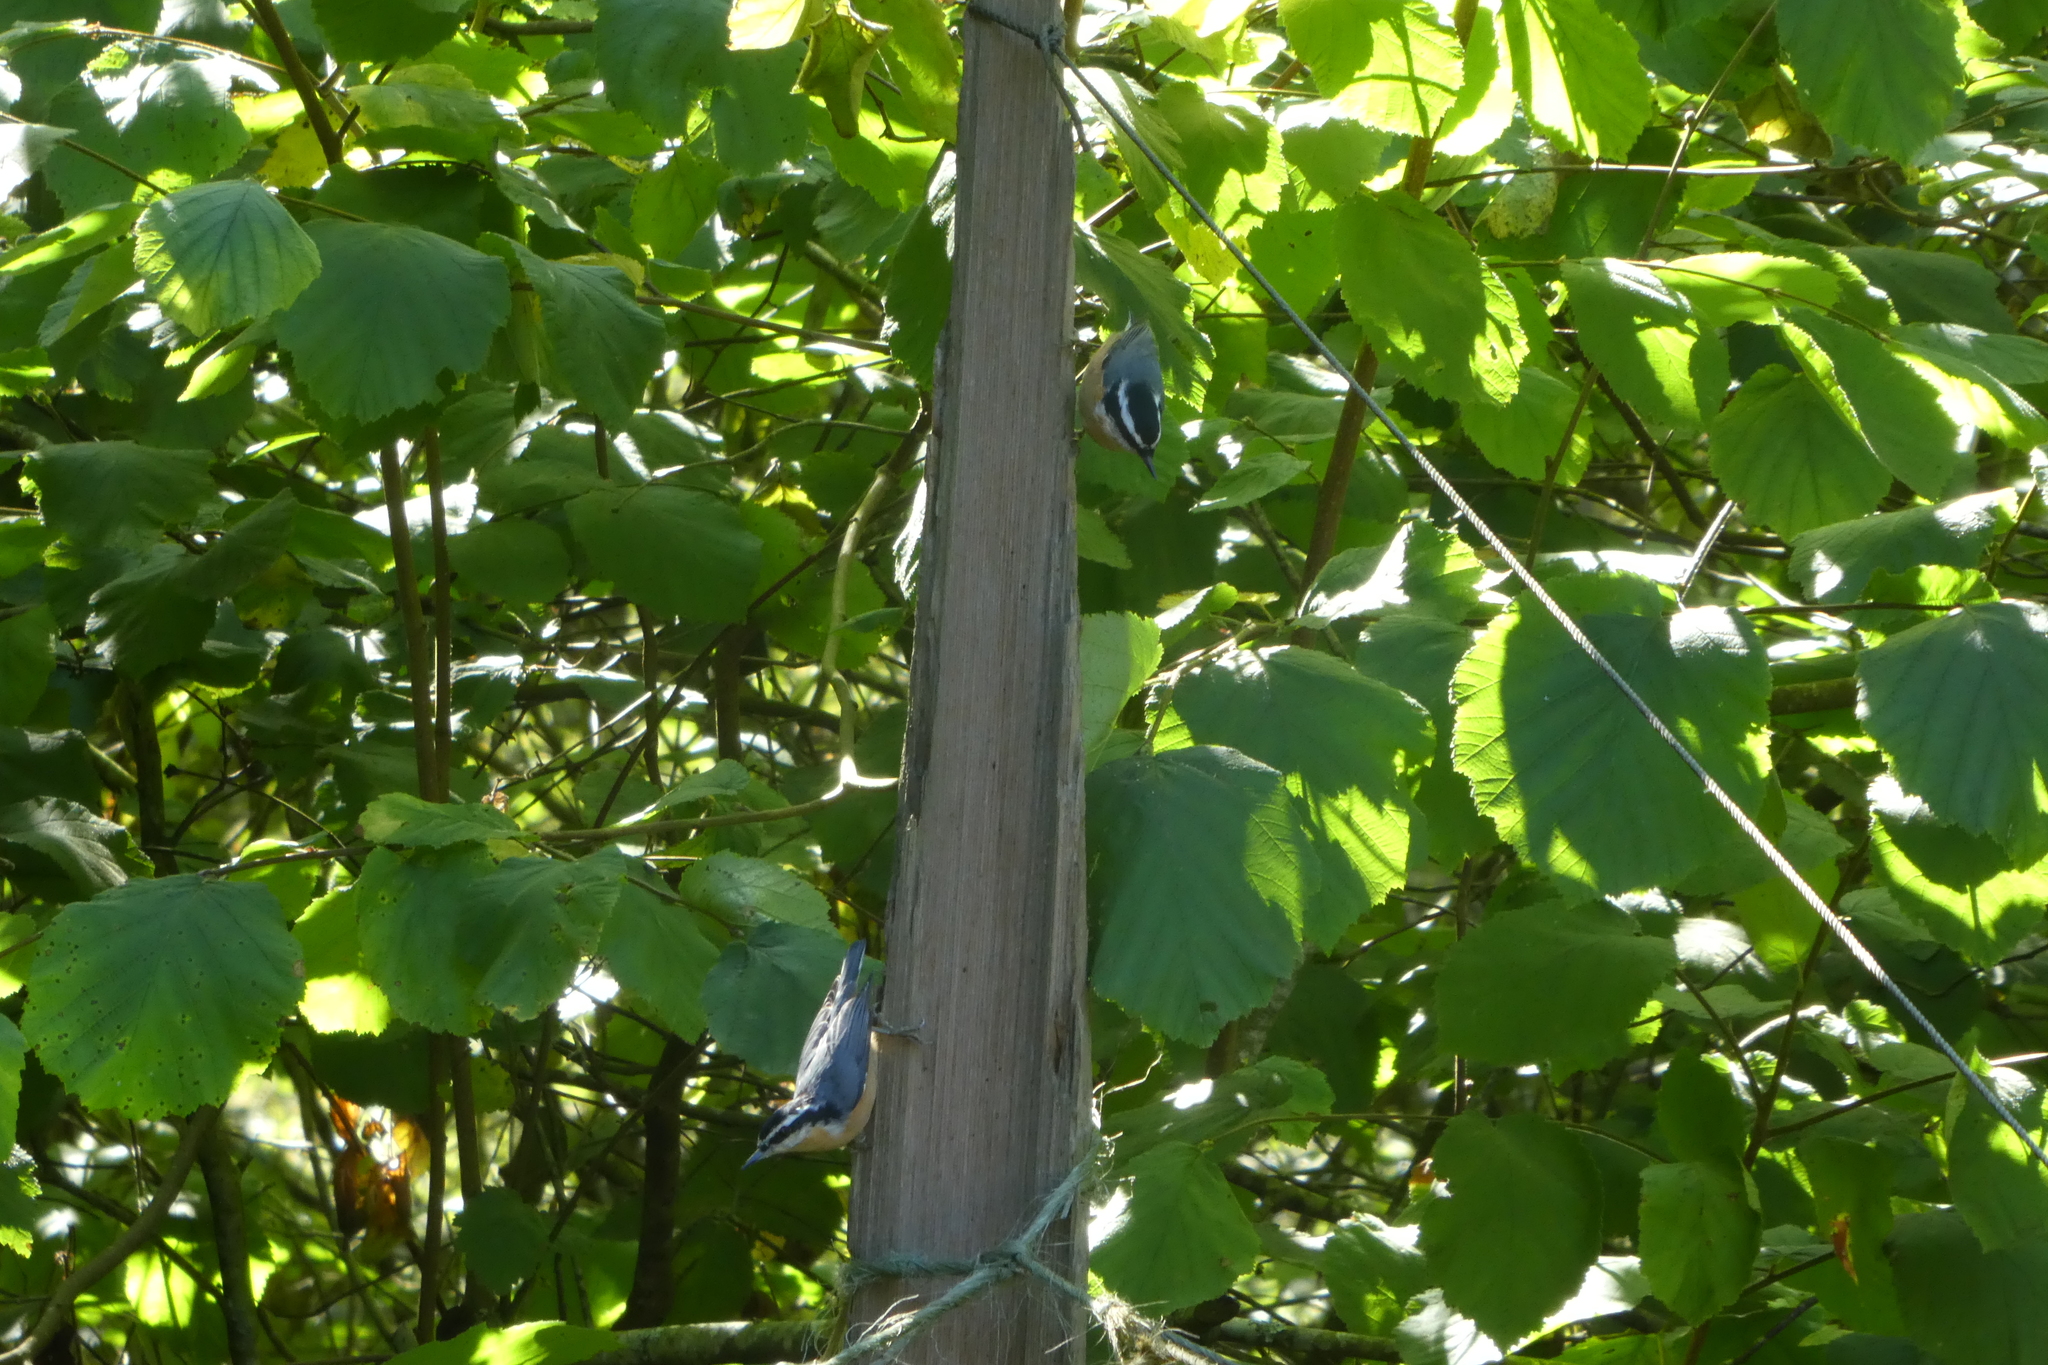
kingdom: Animalia
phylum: Chordata
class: Aves
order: Passeriformes
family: Sittidae
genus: Sitta
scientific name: Sitta canadensis
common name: Red-breasted nuthatch
